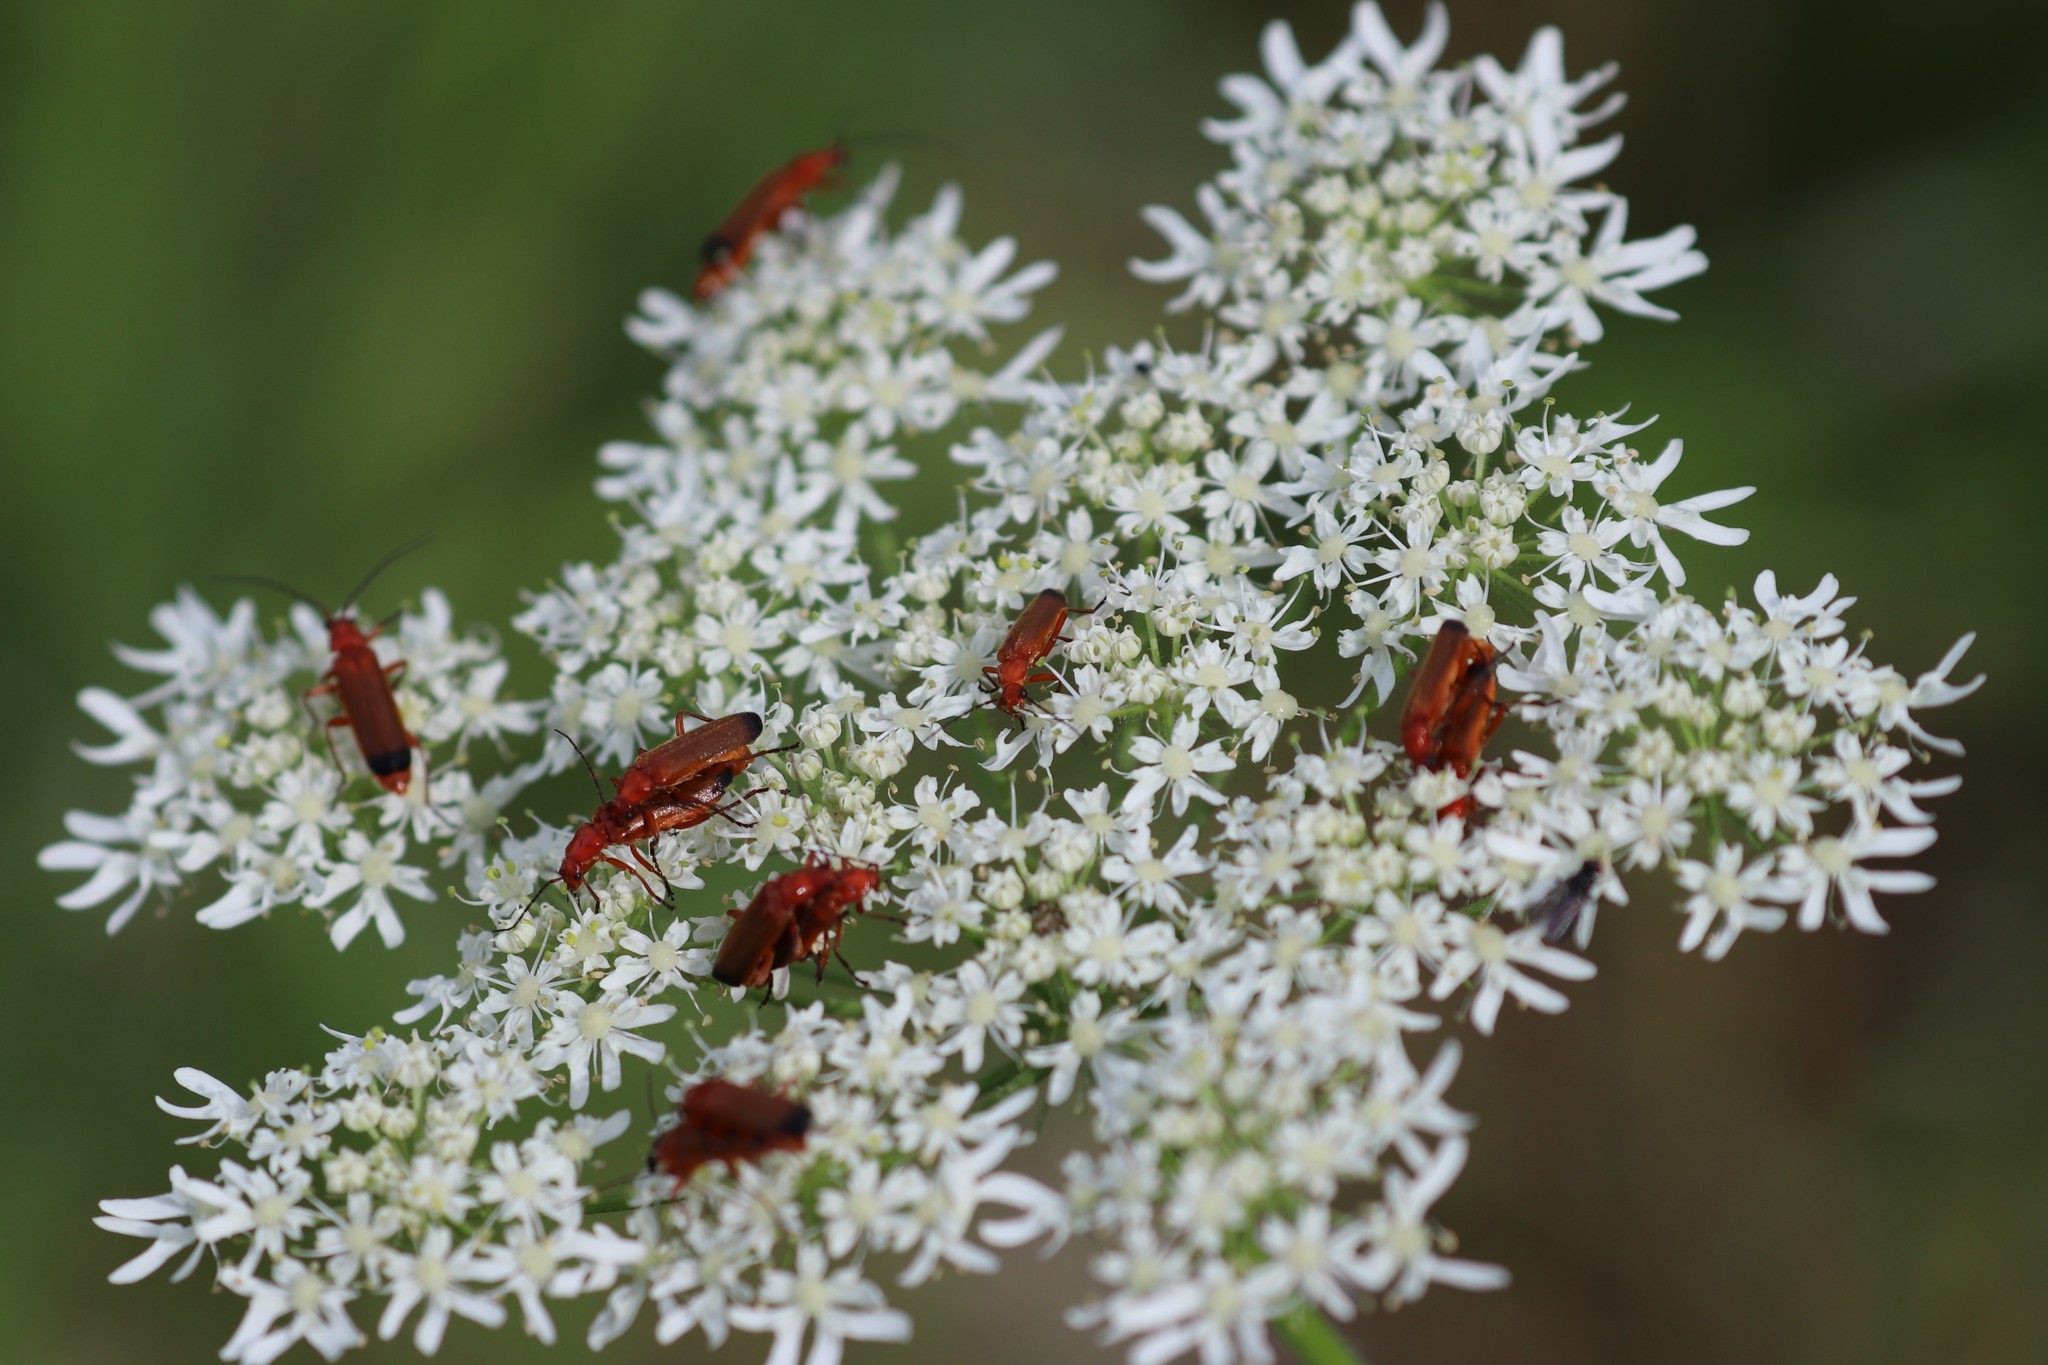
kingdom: Animalia
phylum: Arthropoda
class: Insecta
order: Coleoptera
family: Cantharidae
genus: Rhagonycha
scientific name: Rhagonycha fulva
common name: Common red soldier beetle
